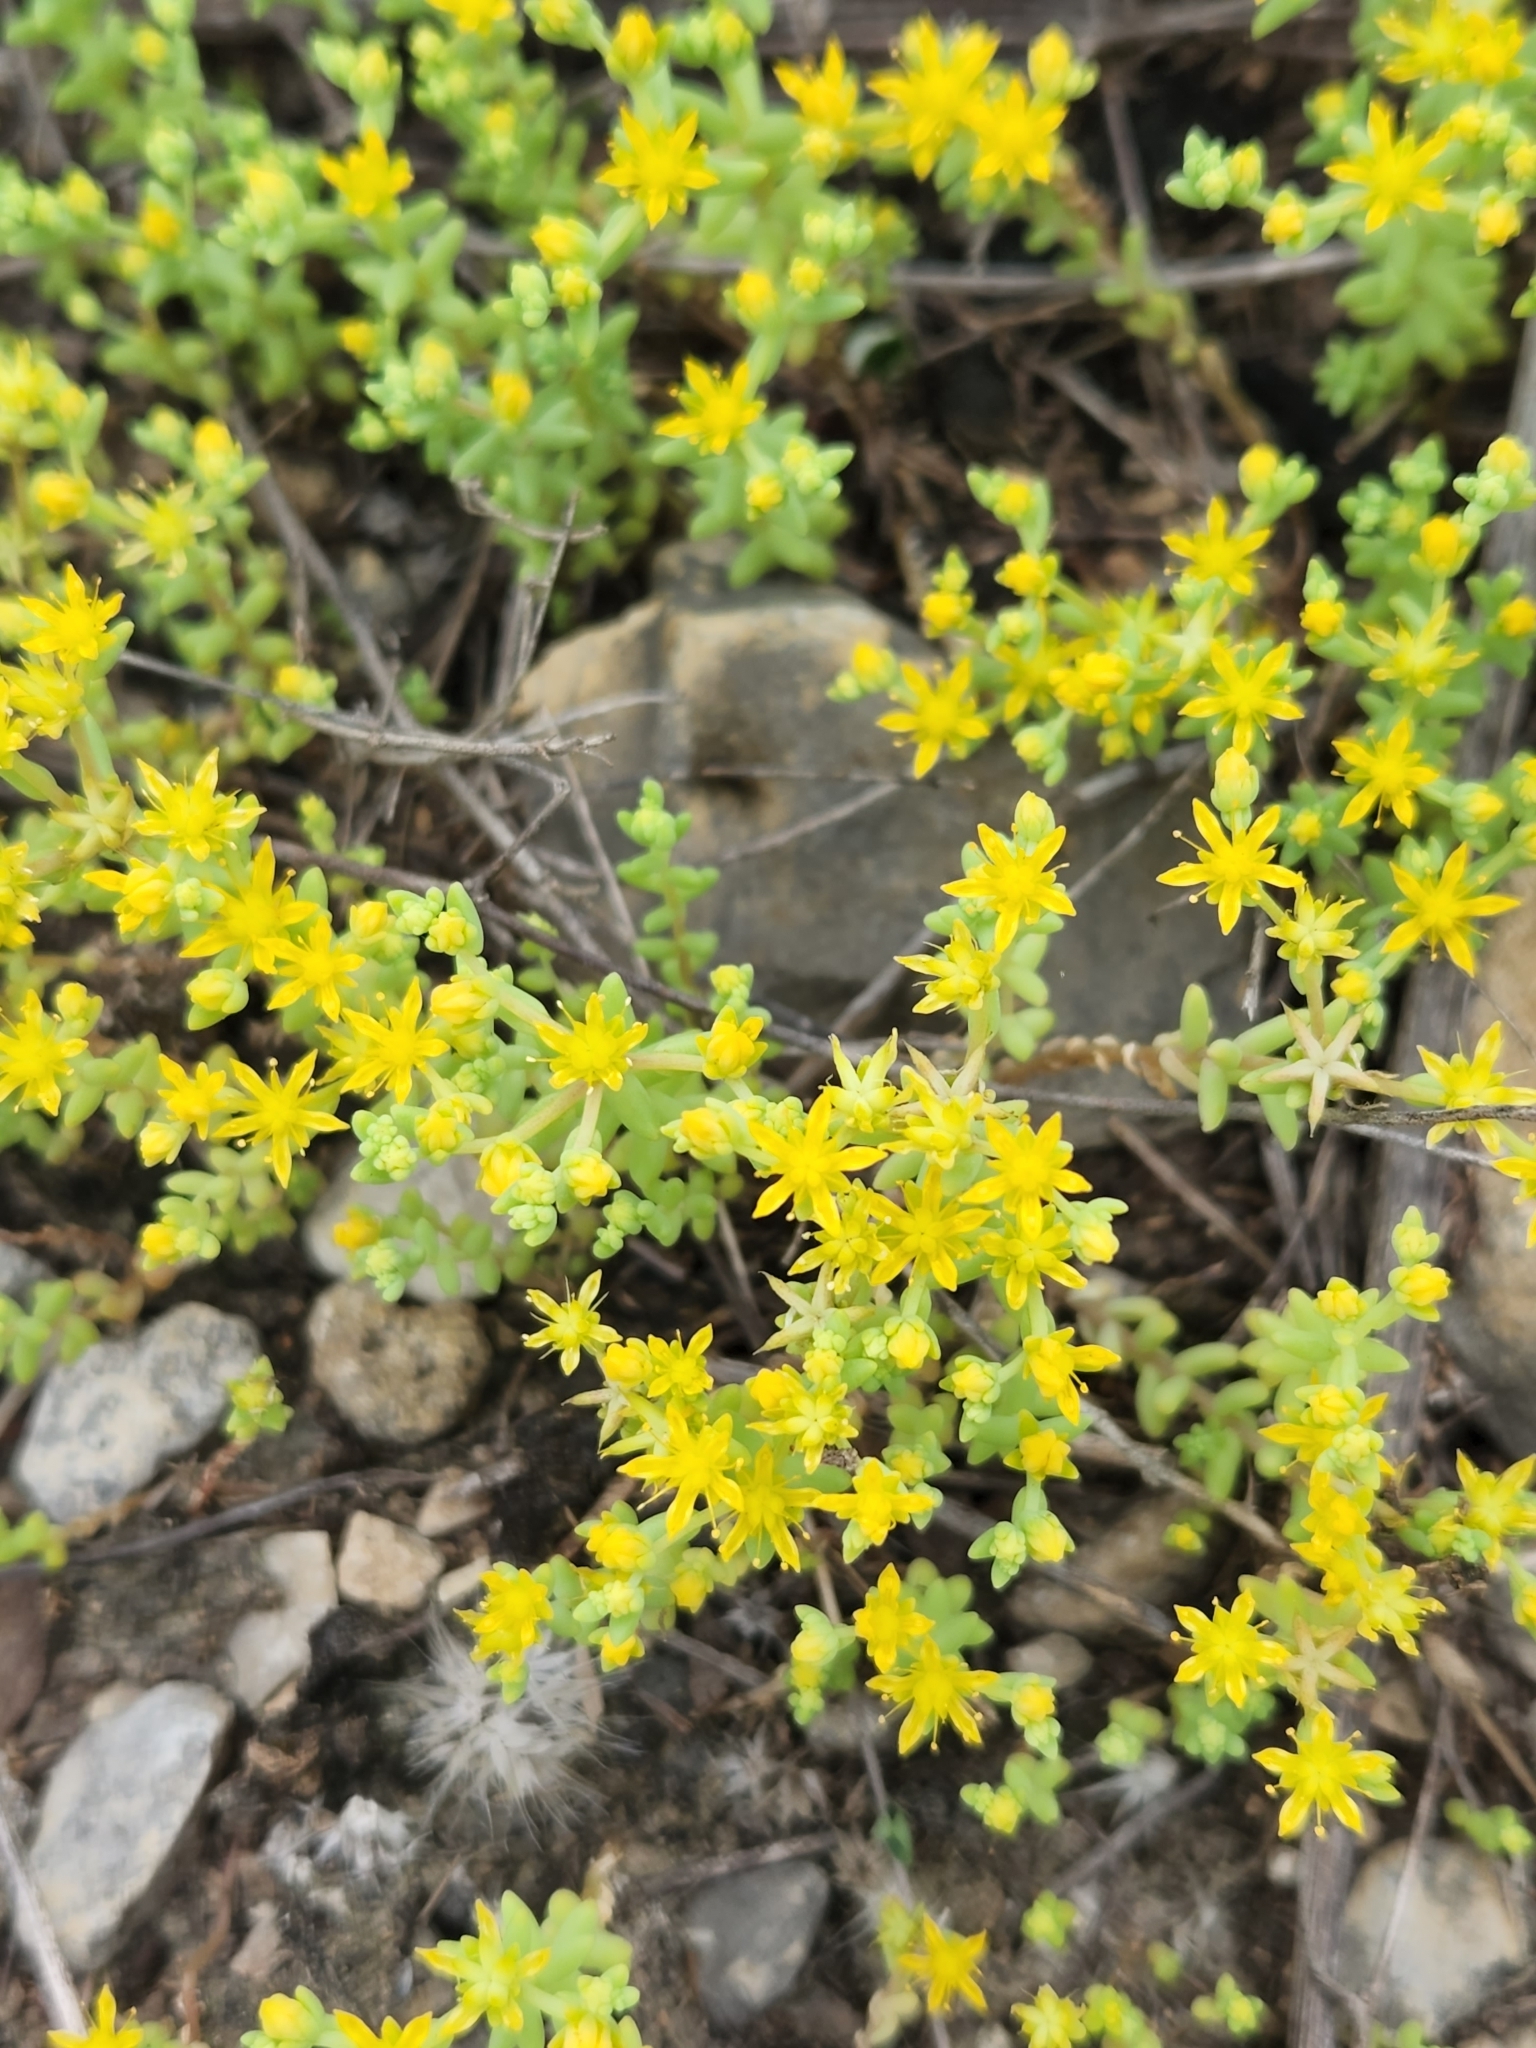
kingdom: Plantae
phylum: Tracheophyta
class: Magnoliopsida
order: Saxifragales
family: Crassulaceae
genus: Sedum
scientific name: Sedum nuttallii
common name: Yellow stonecrop
